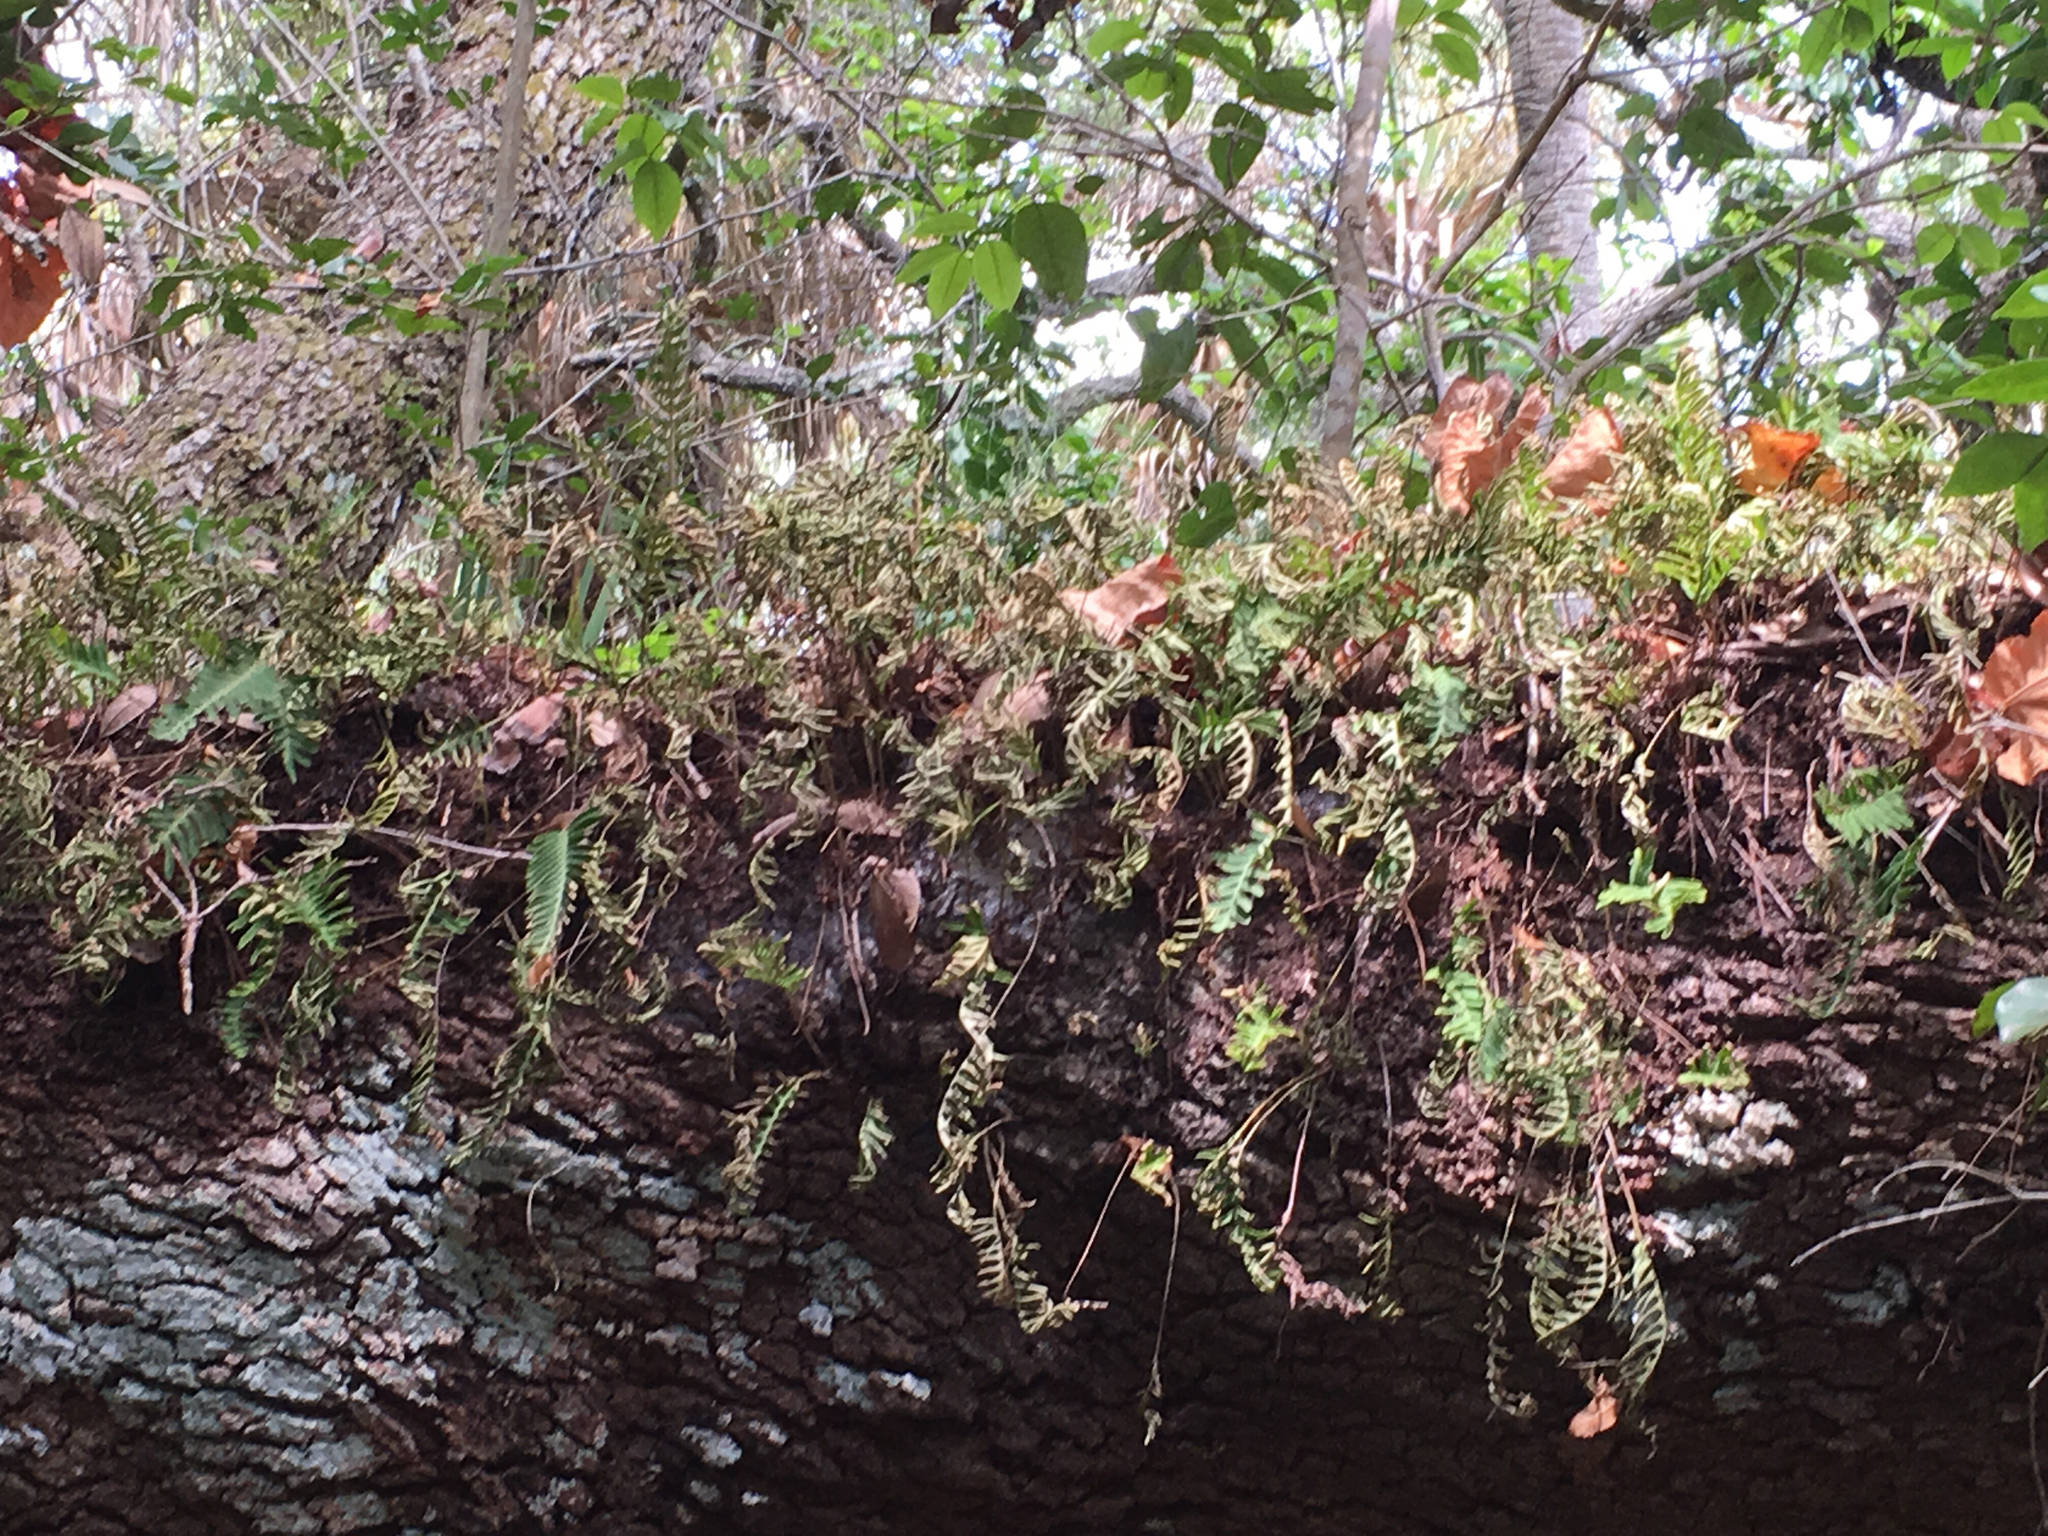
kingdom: Plantae
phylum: Tracheophyta
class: Polypodiopsida
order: Polypodiales
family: Polypodiaceae
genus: Pleopeltis
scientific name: Pleopeltis michauxiana
